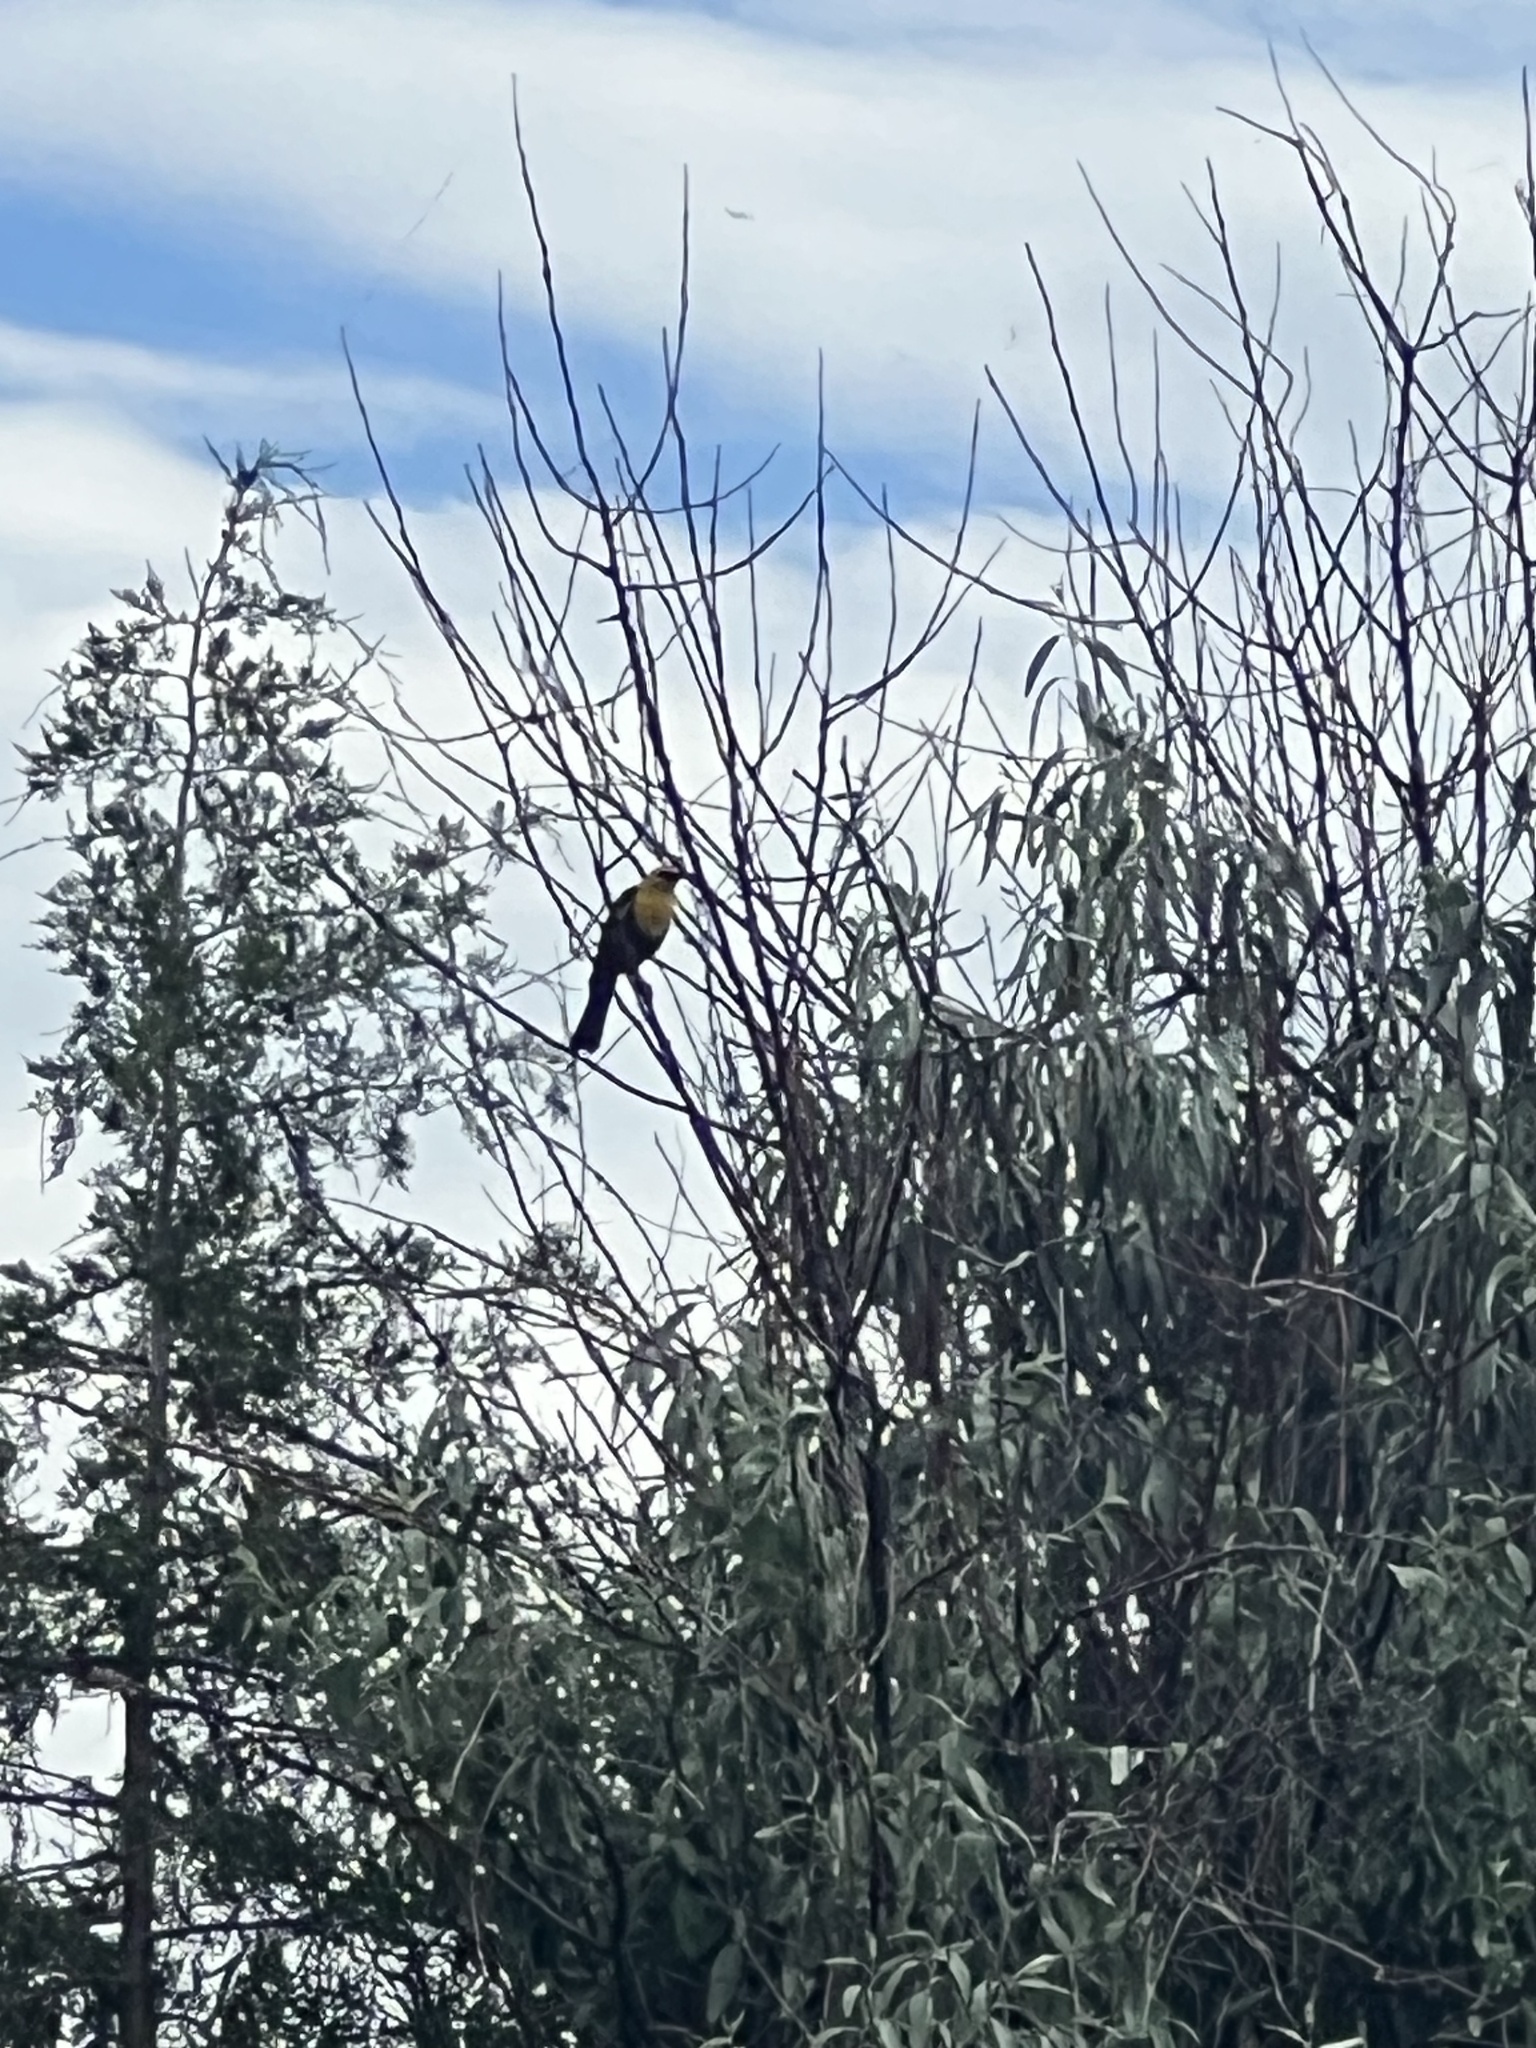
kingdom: Animalia
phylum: Chordata
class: Aves
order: Passeriformes
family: Icteridae
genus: Xanthocephalus
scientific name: Xanthocephalus xanthocephalus
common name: Yellow-headed blackbird
